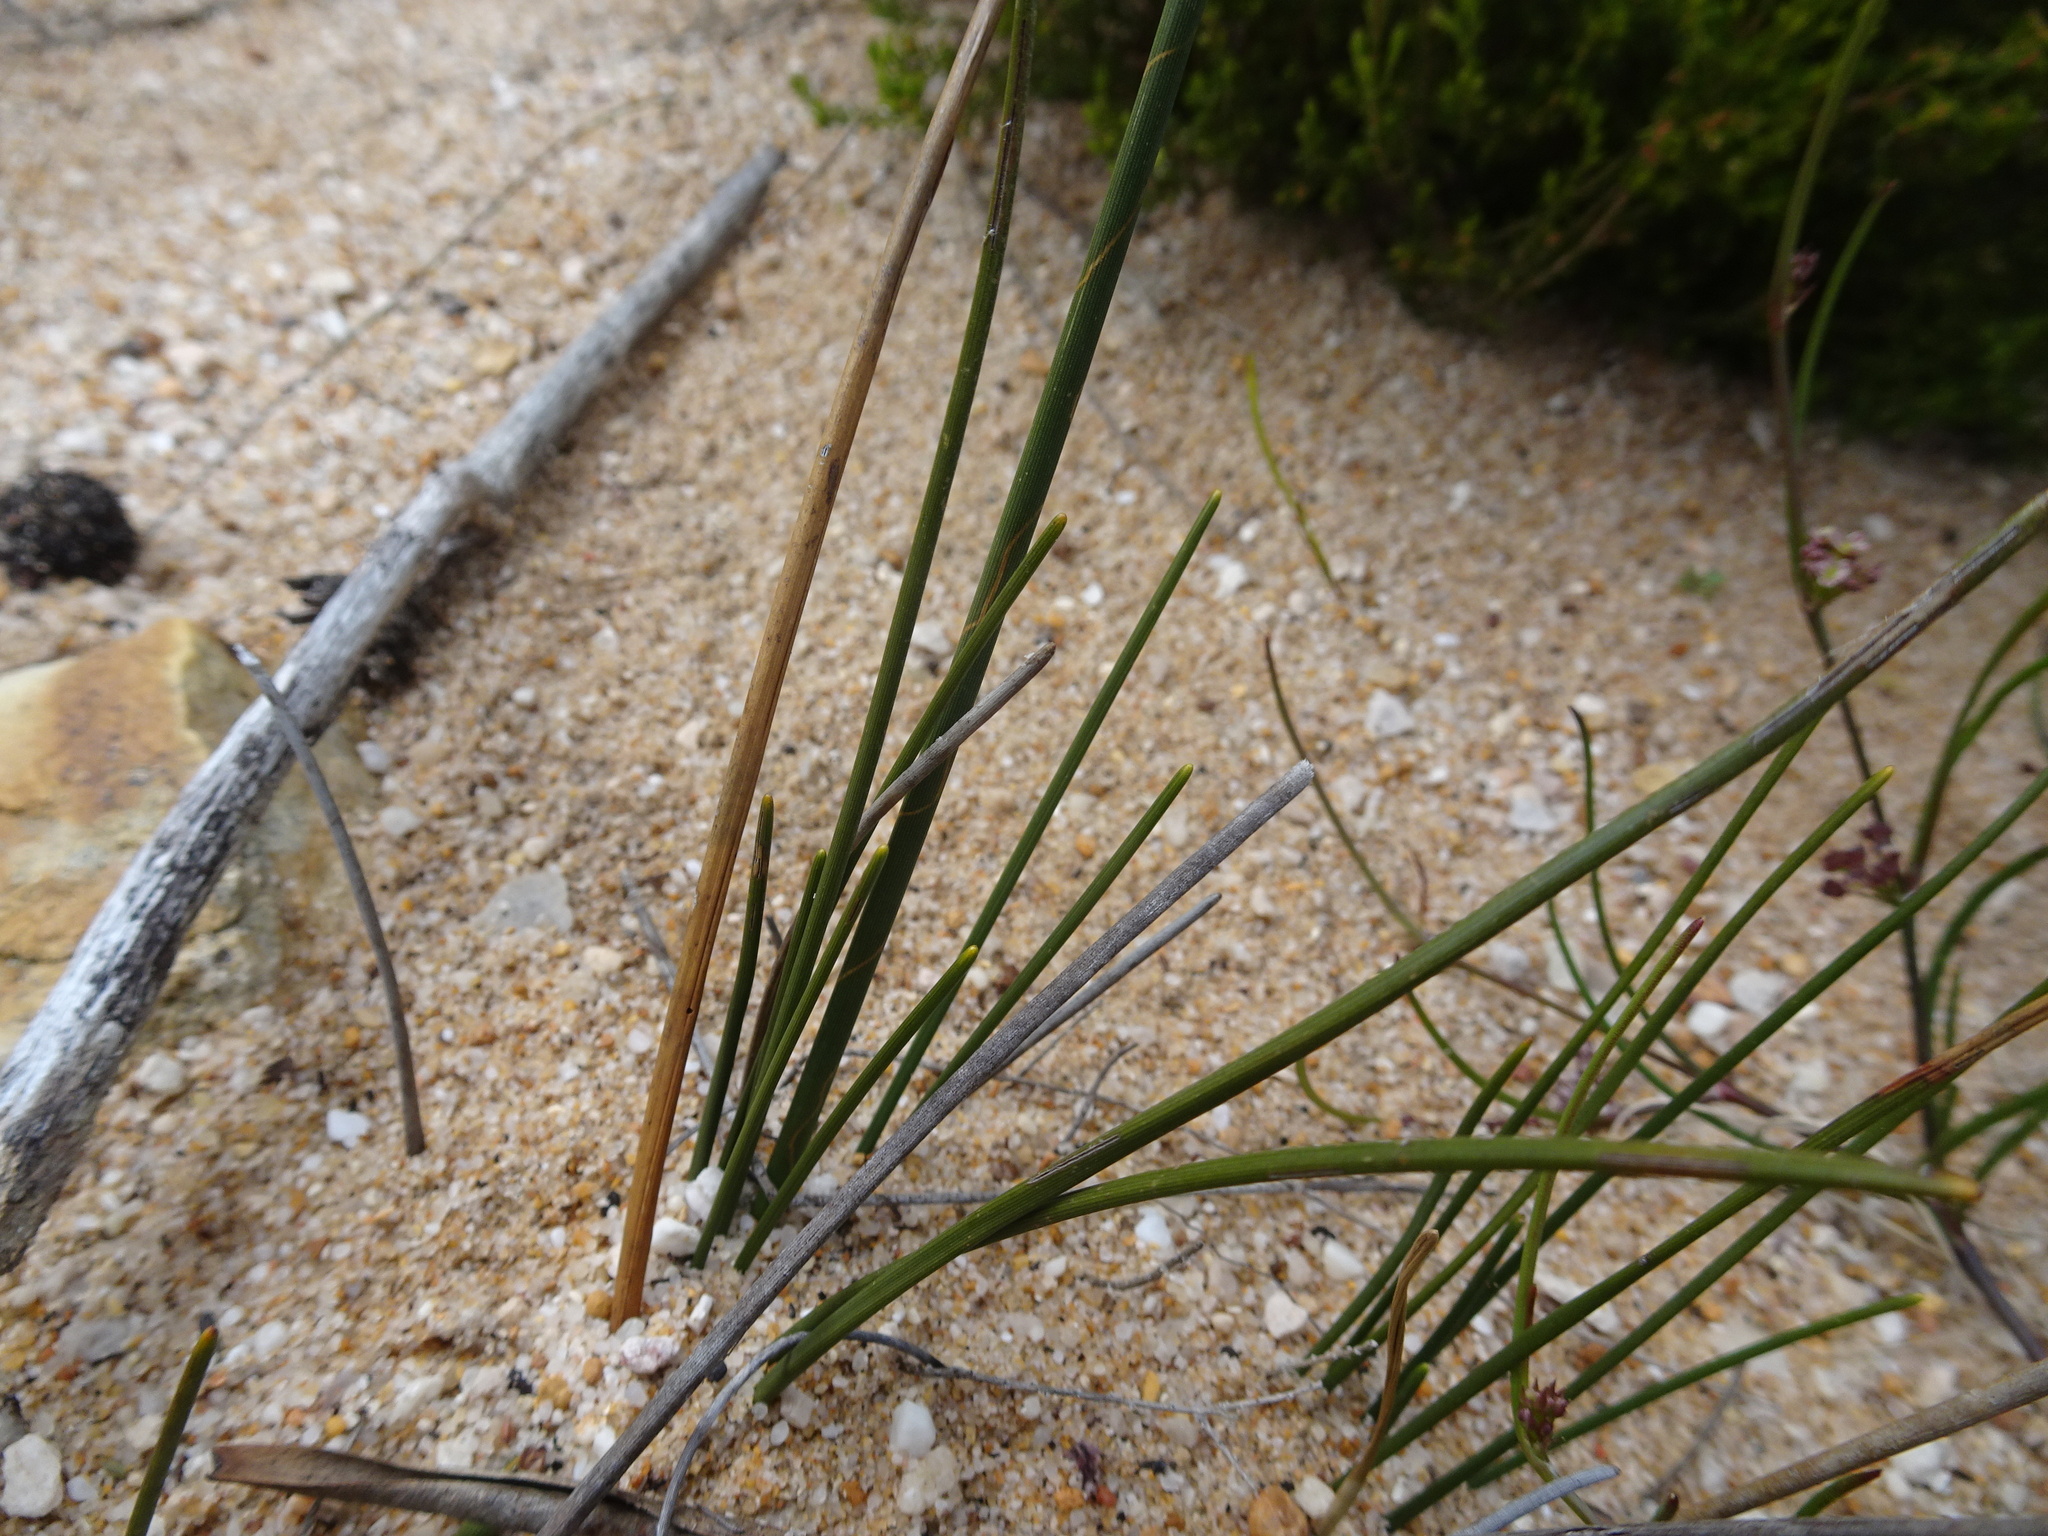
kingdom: Plantae
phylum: Tracheophyta
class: Liliopsida
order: Poales
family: Cyperaceae
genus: Ficinia
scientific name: Ficinia deusta
